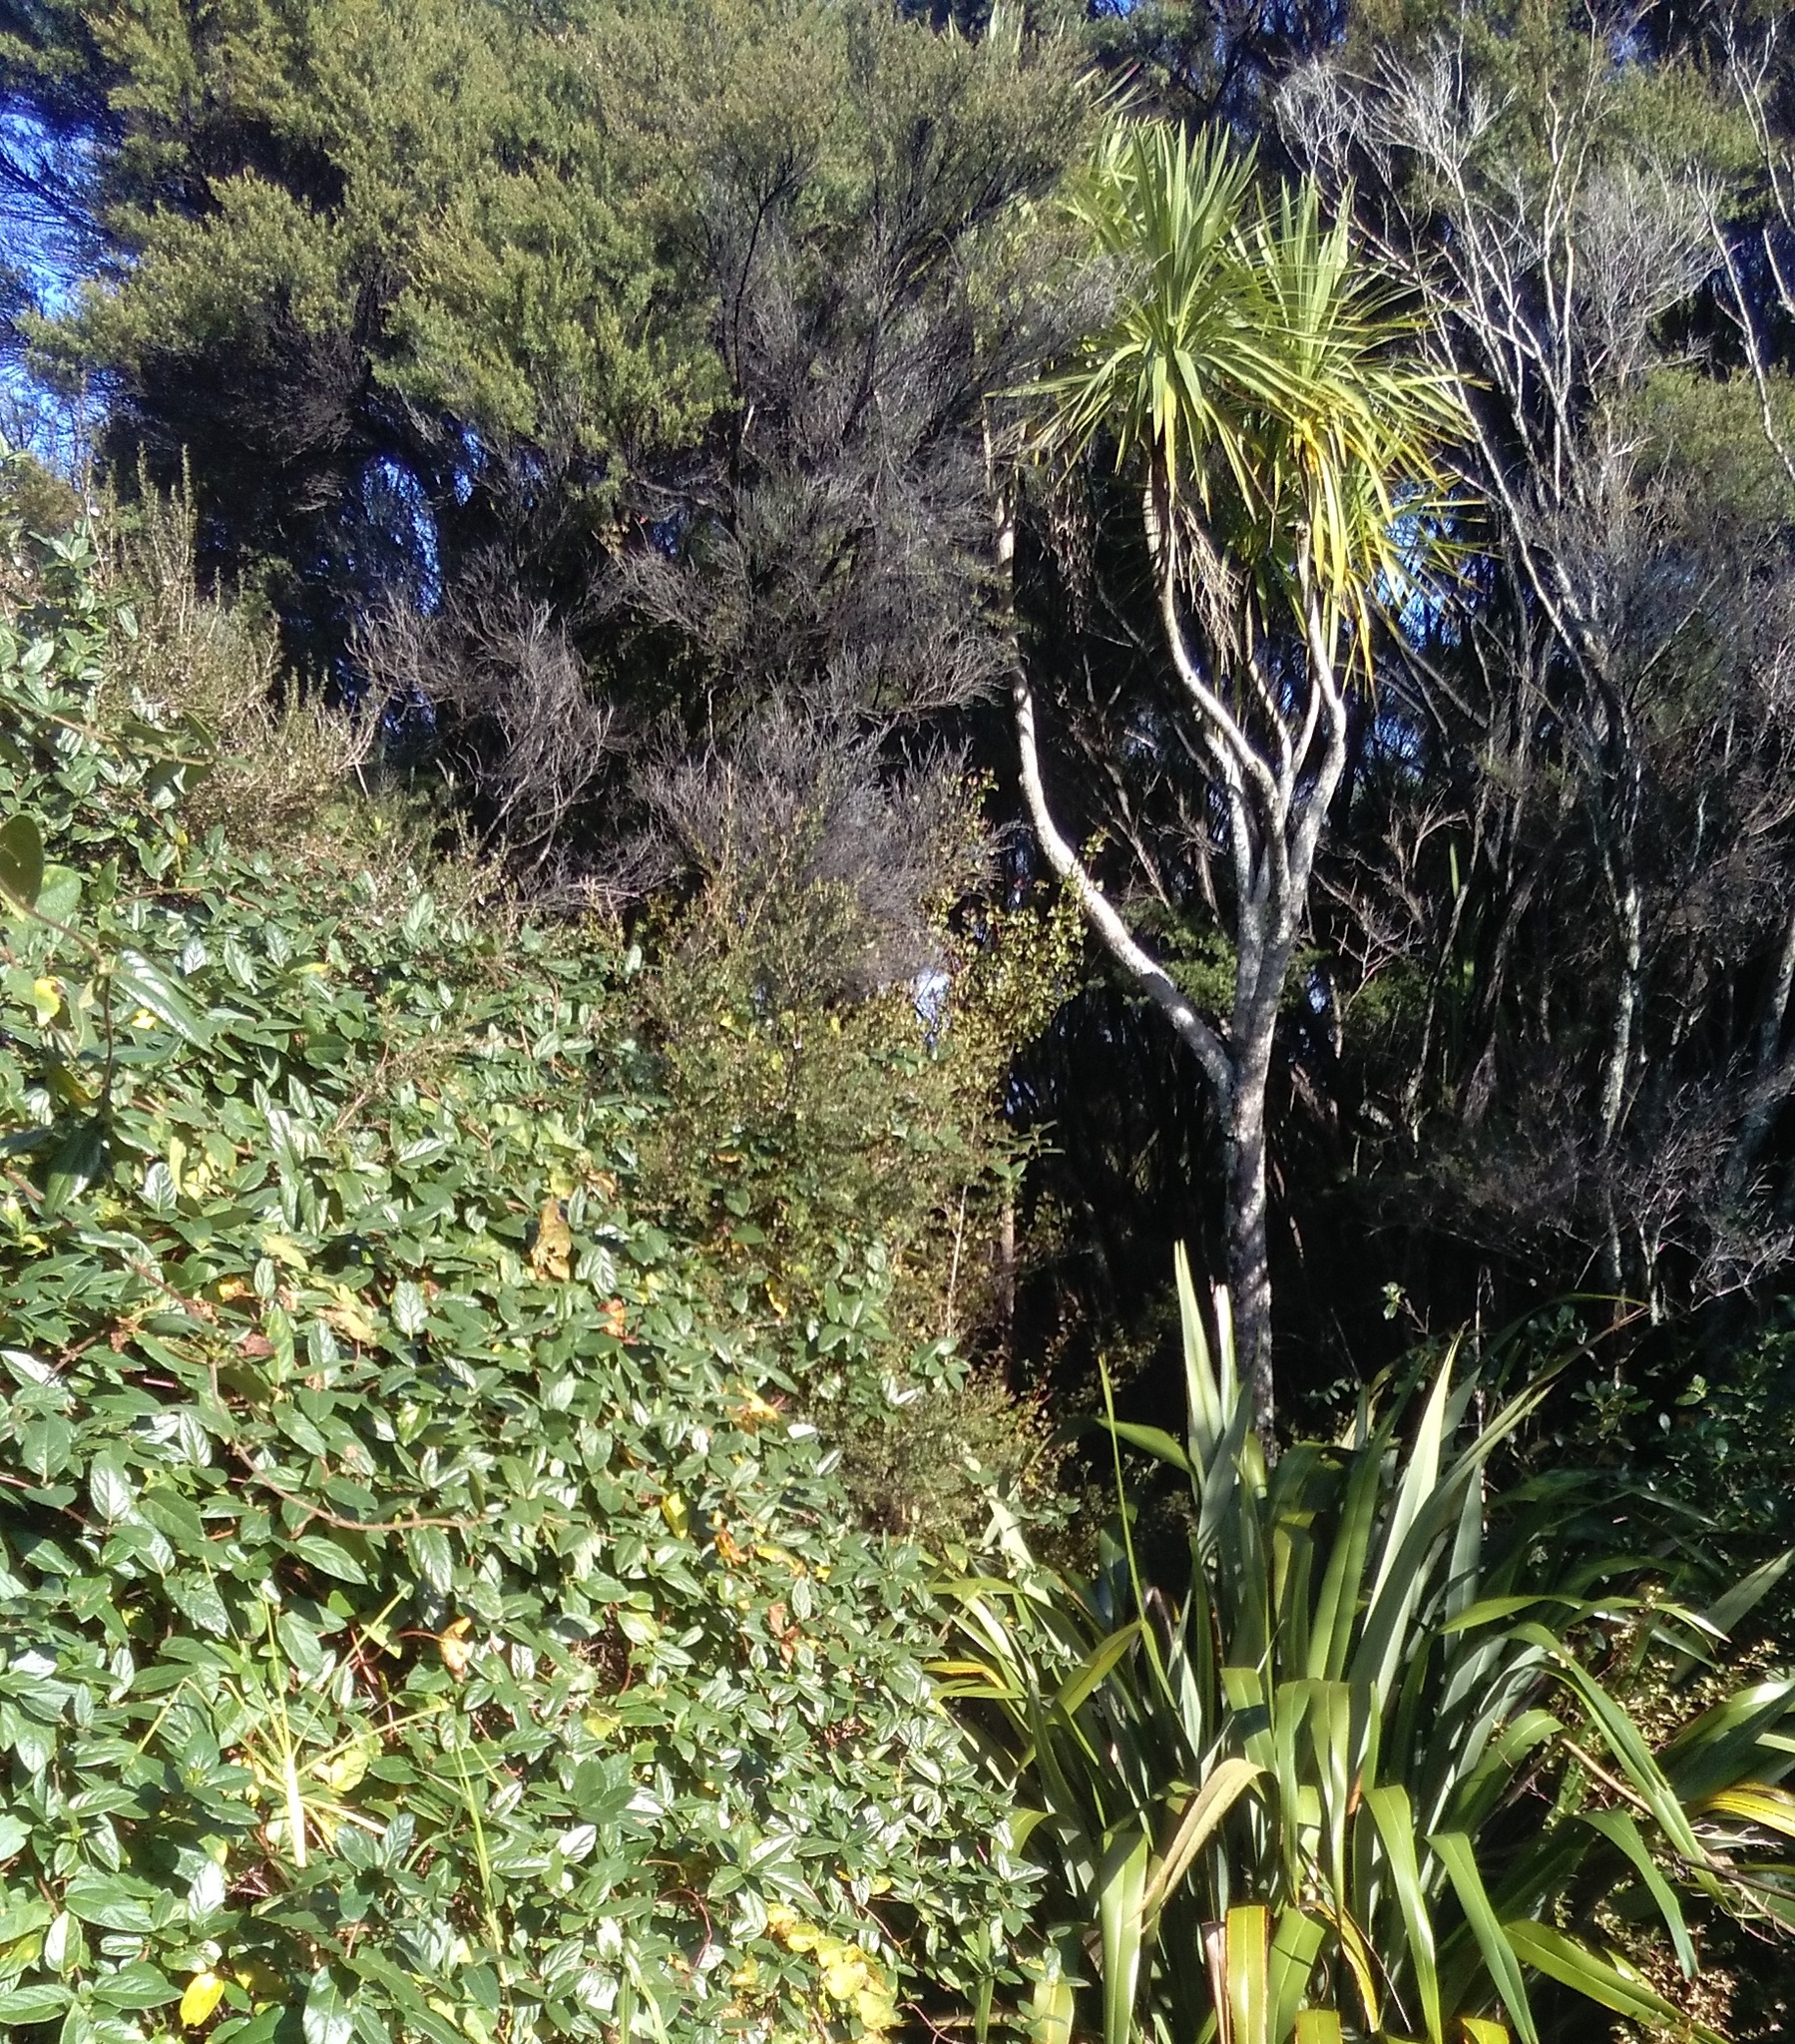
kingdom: Plantae
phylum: Tracheophyta
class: Liliopsida
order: Asparagales
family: Asparagaceae
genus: Cordyline
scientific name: Cordyline australis
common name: Cabbage-palm
